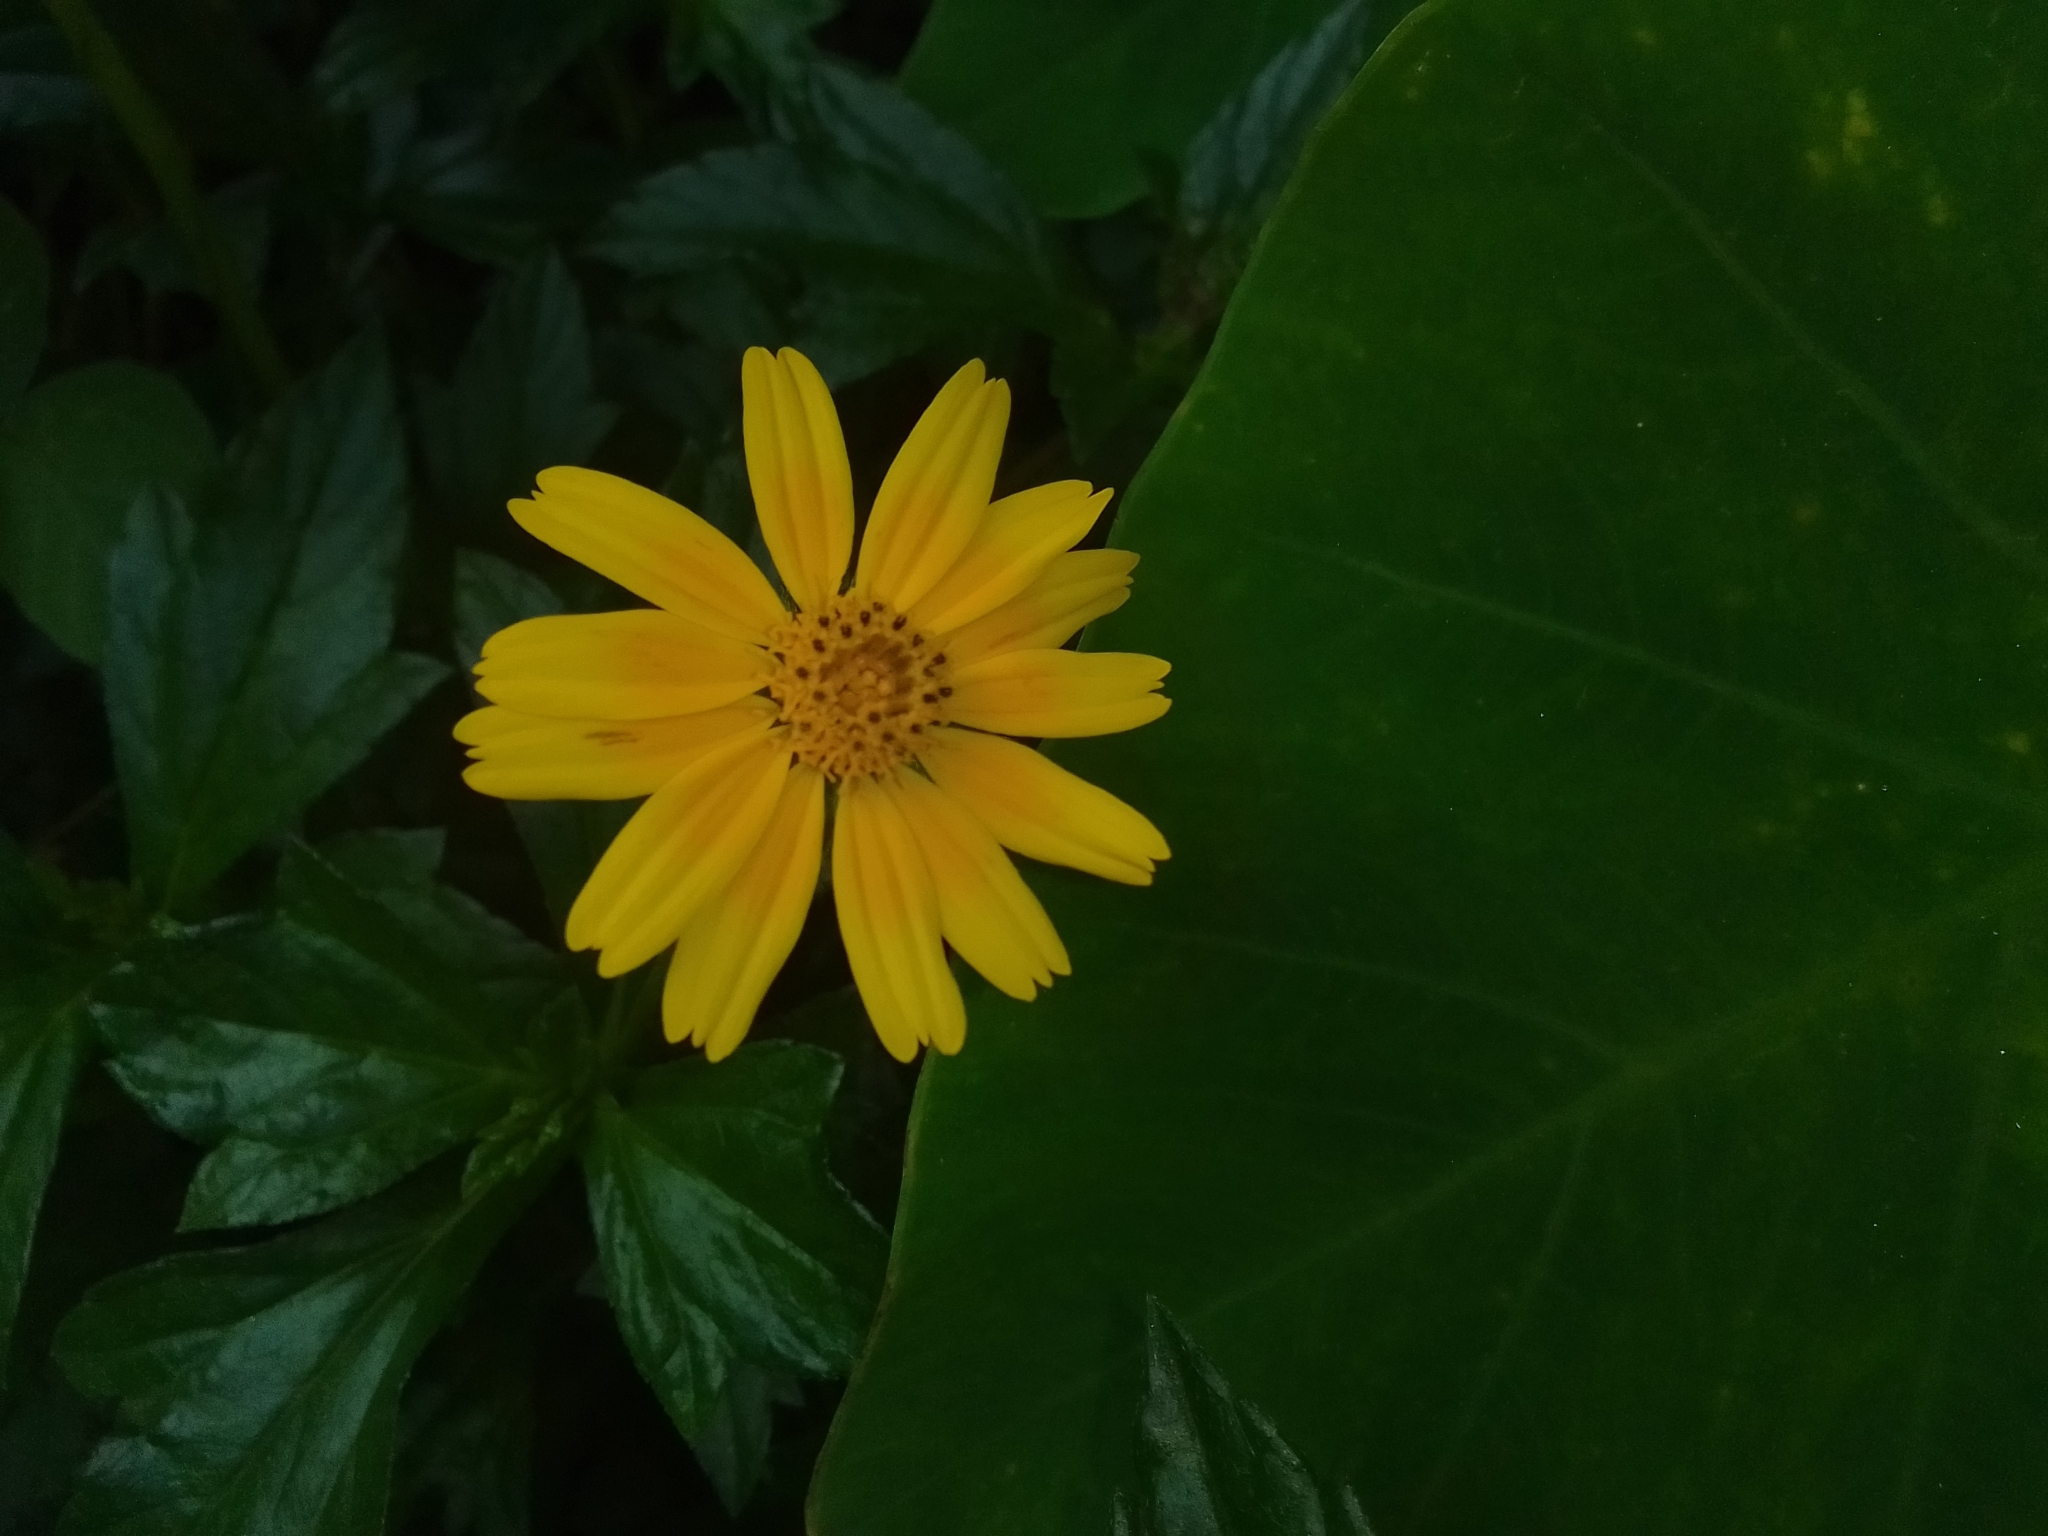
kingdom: Plantae
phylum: Tracheophyta
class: Magnoliopsida
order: Asterales
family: Asteraceae
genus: Sphagneticola
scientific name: Sphagneticola trilobata
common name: Bay biscayne creeping-oxeye
